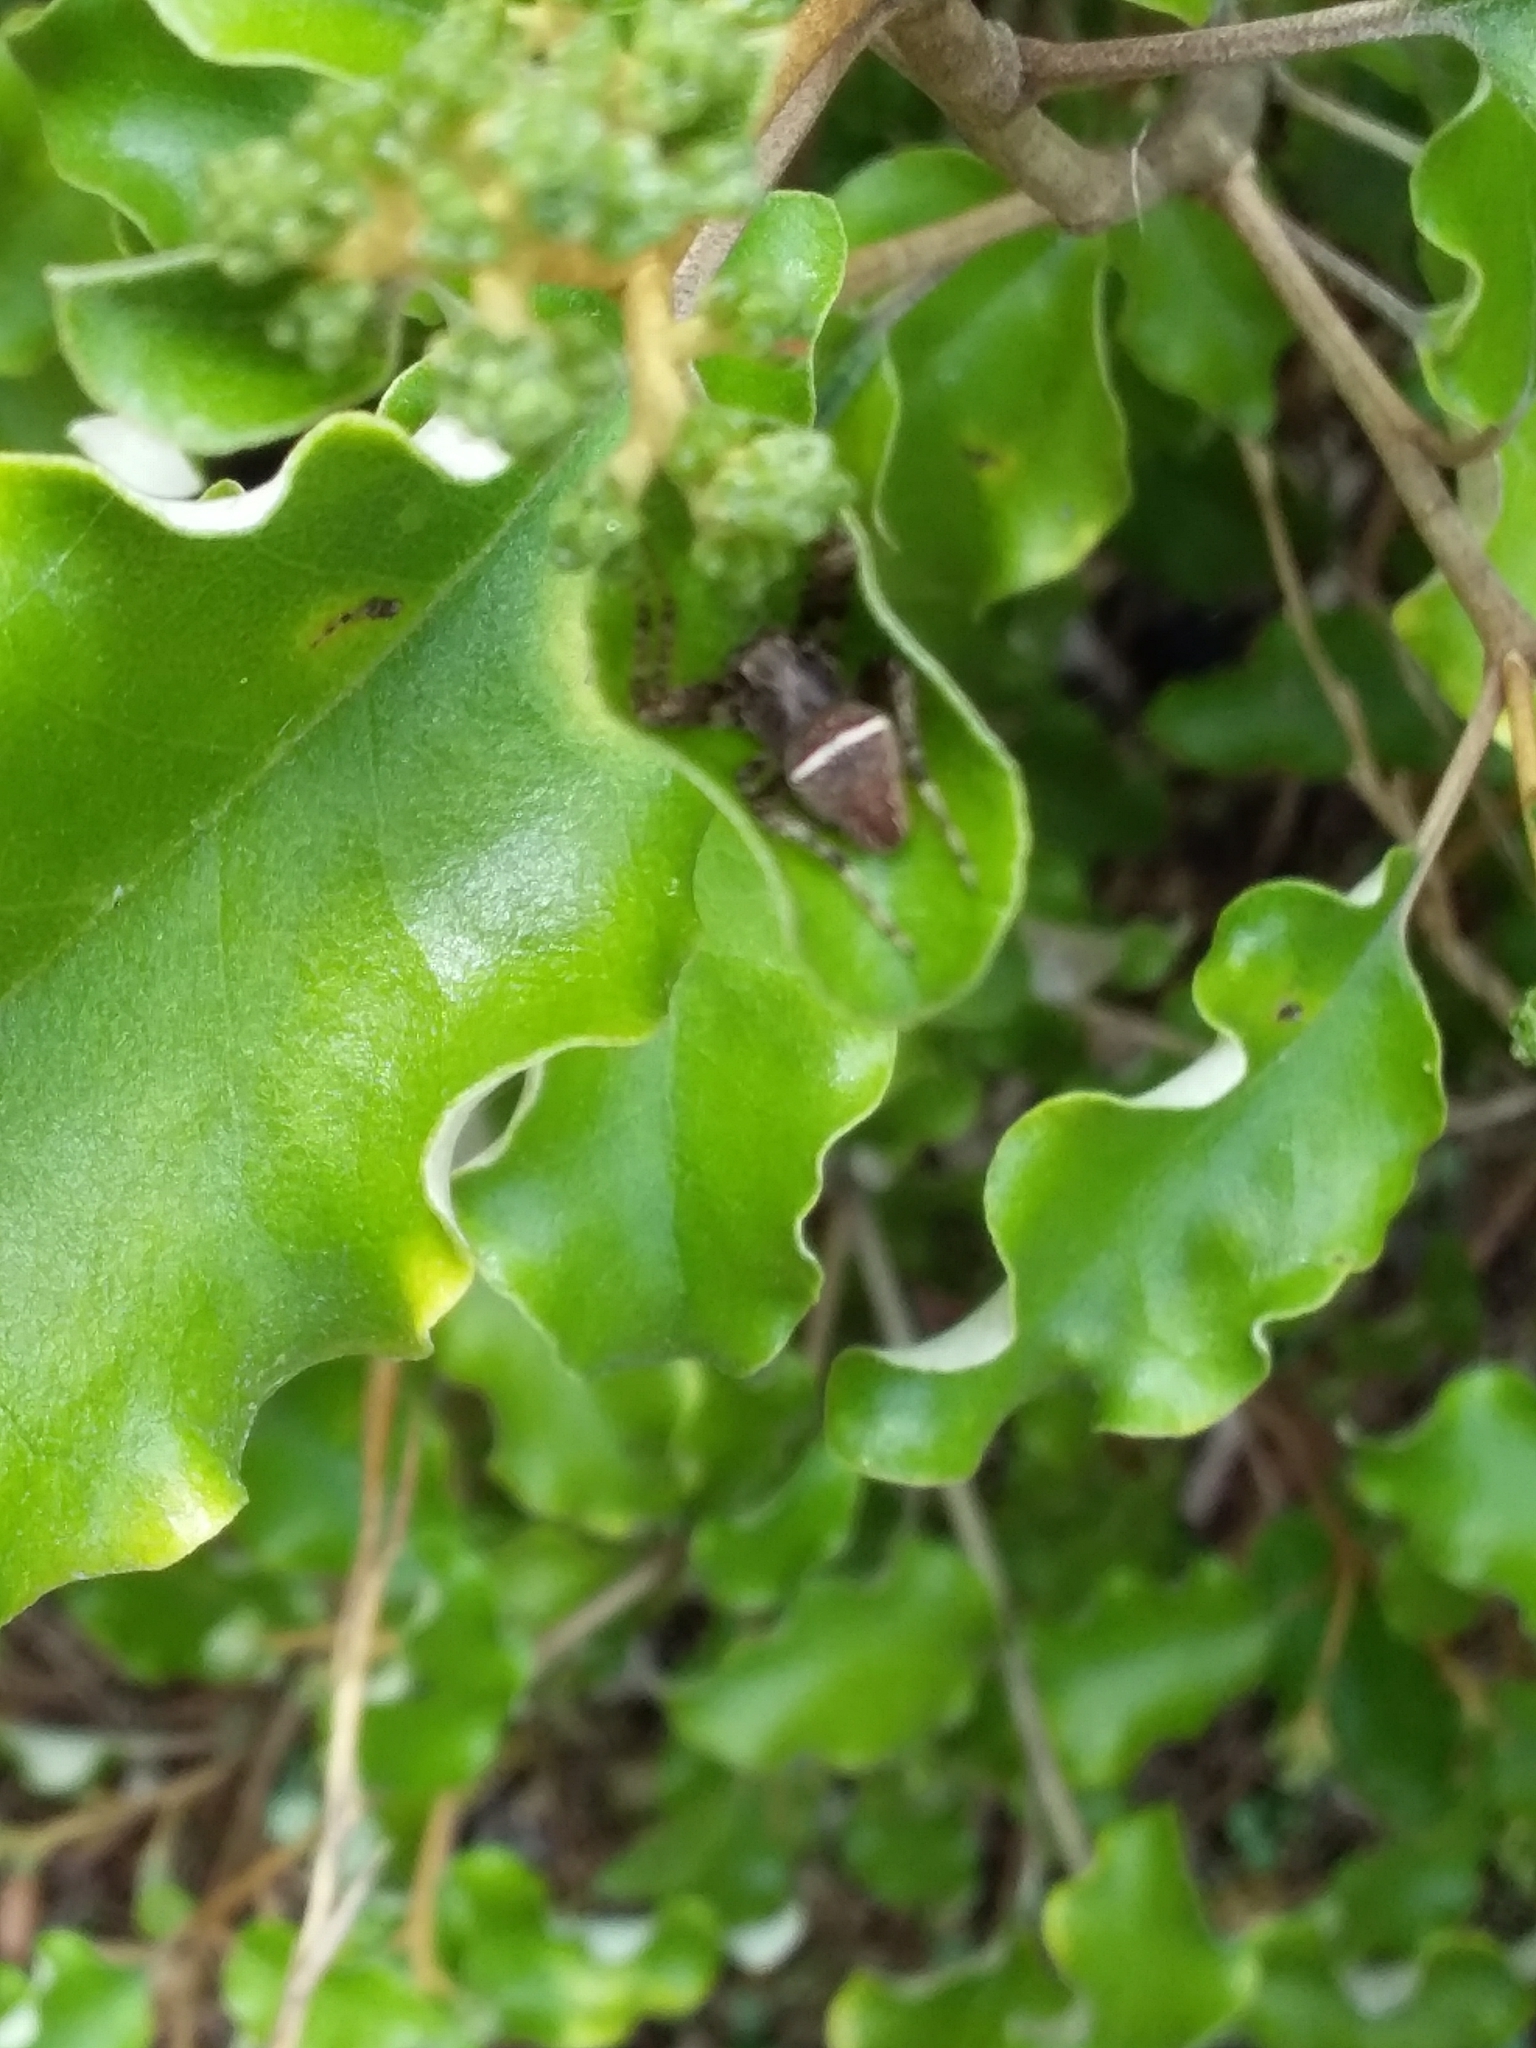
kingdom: Animalia
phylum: Arthropoda
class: Arachnida
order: Araneae
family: Araneidae
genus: Zealaranea
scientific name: Zealaranea crassa
